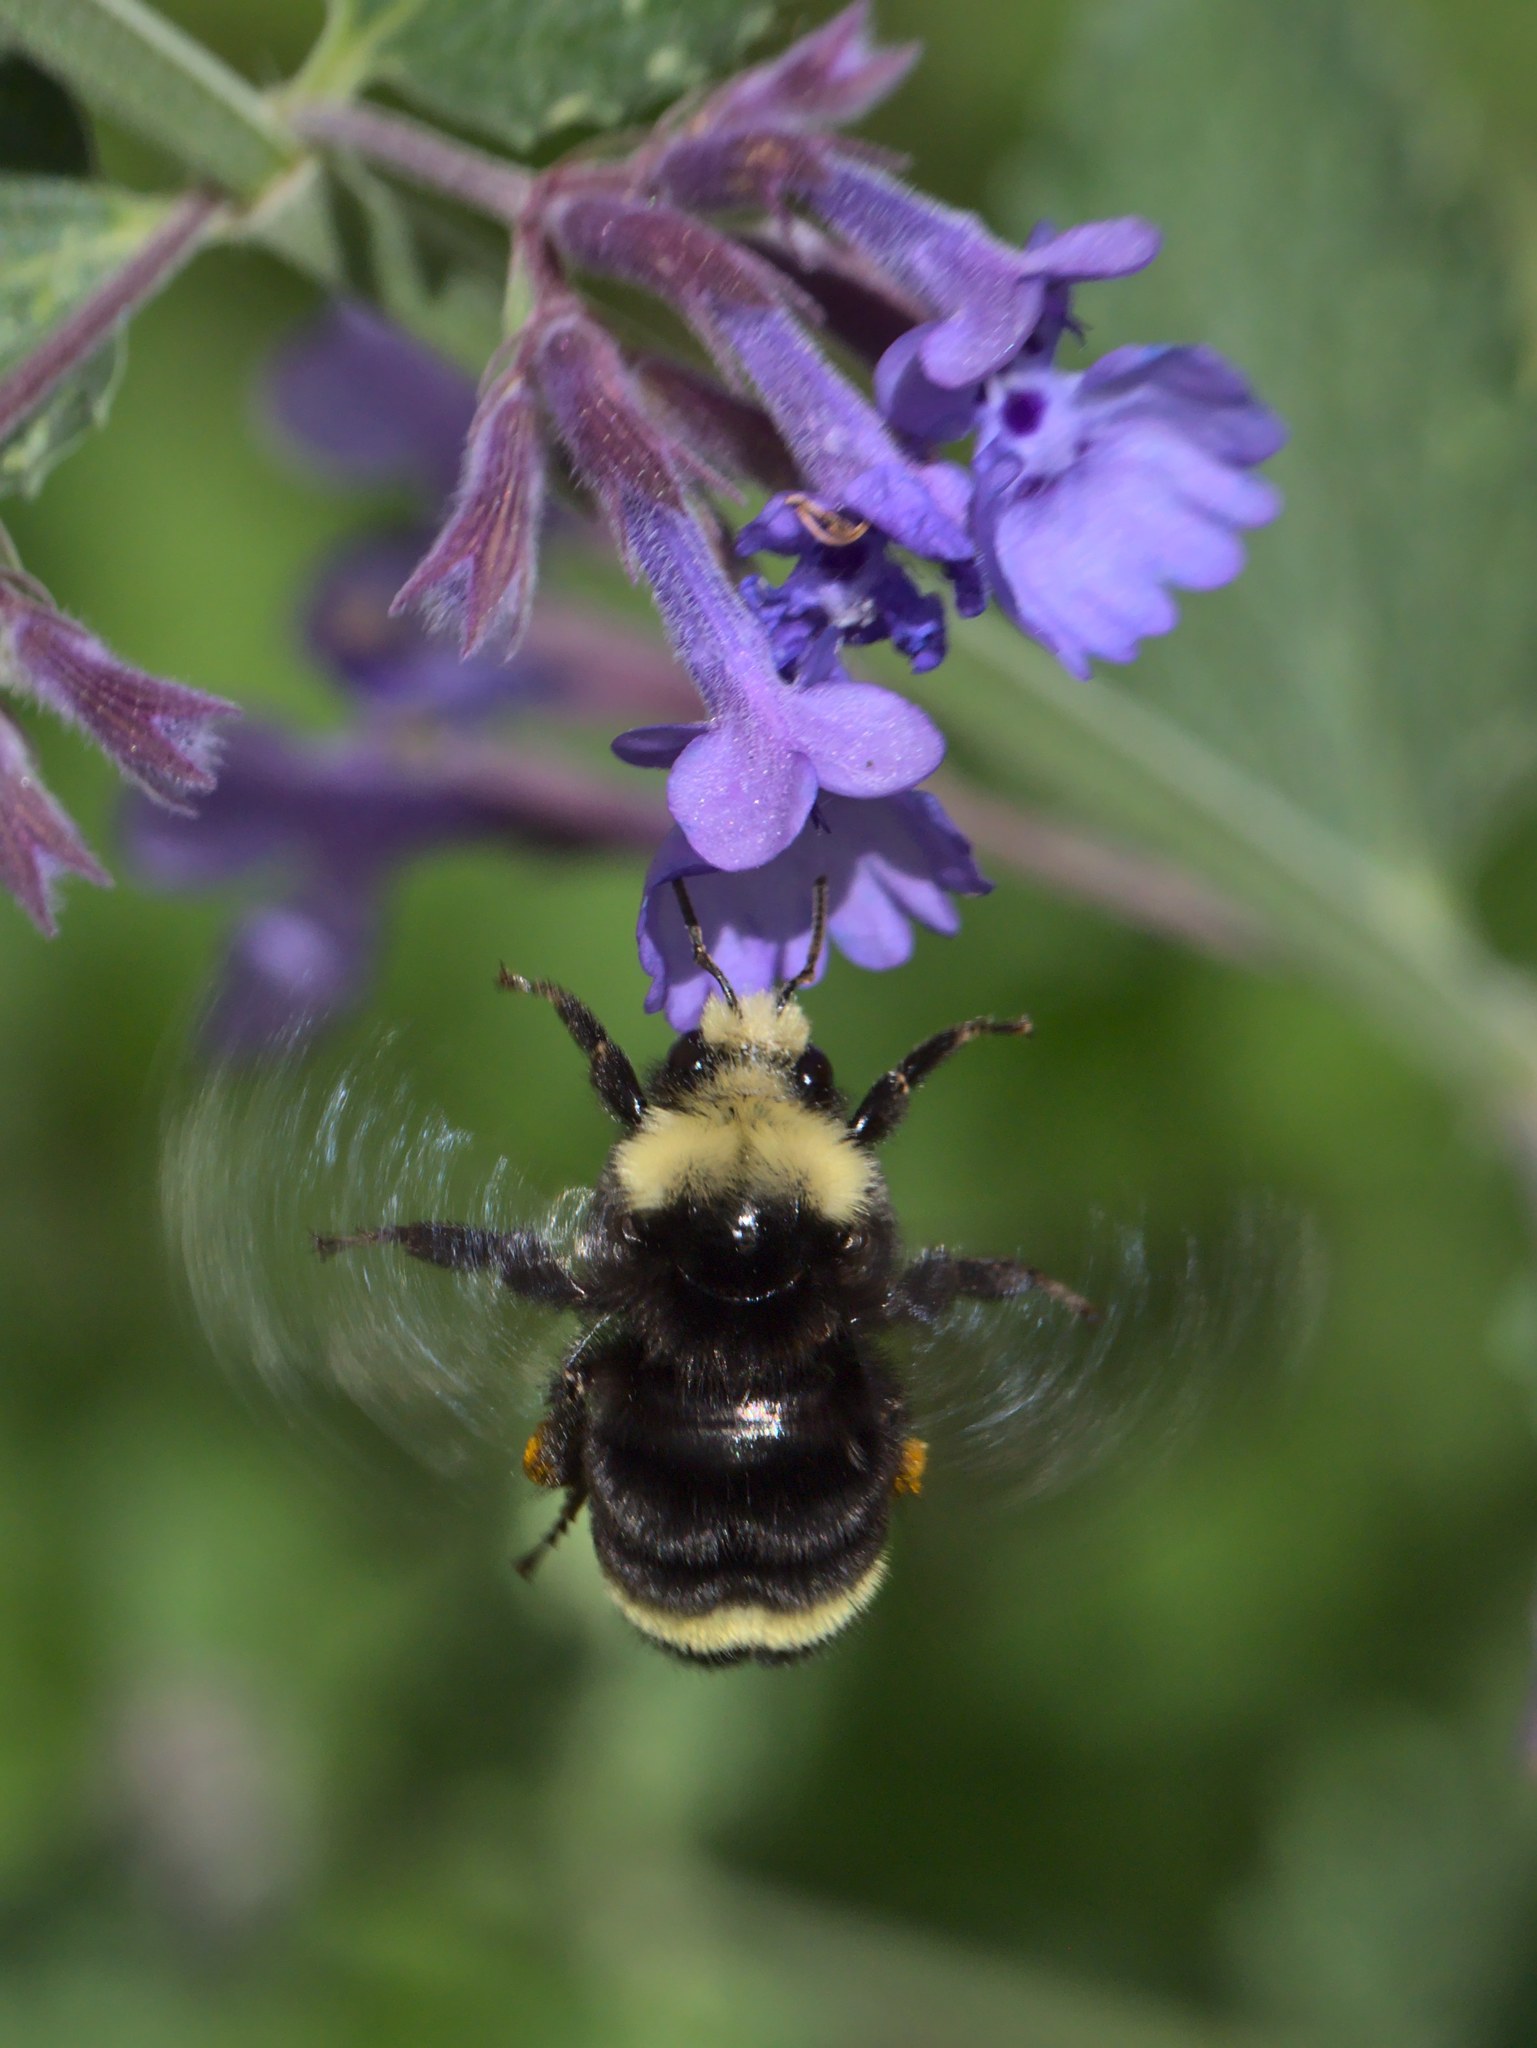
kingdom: Animalia
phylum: Arthropoda
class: Insecta
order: Hymenoptera
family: Apidae
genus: Bombus
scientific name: Bombus vosnesenskii
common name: Vosnesensky bumble bee
